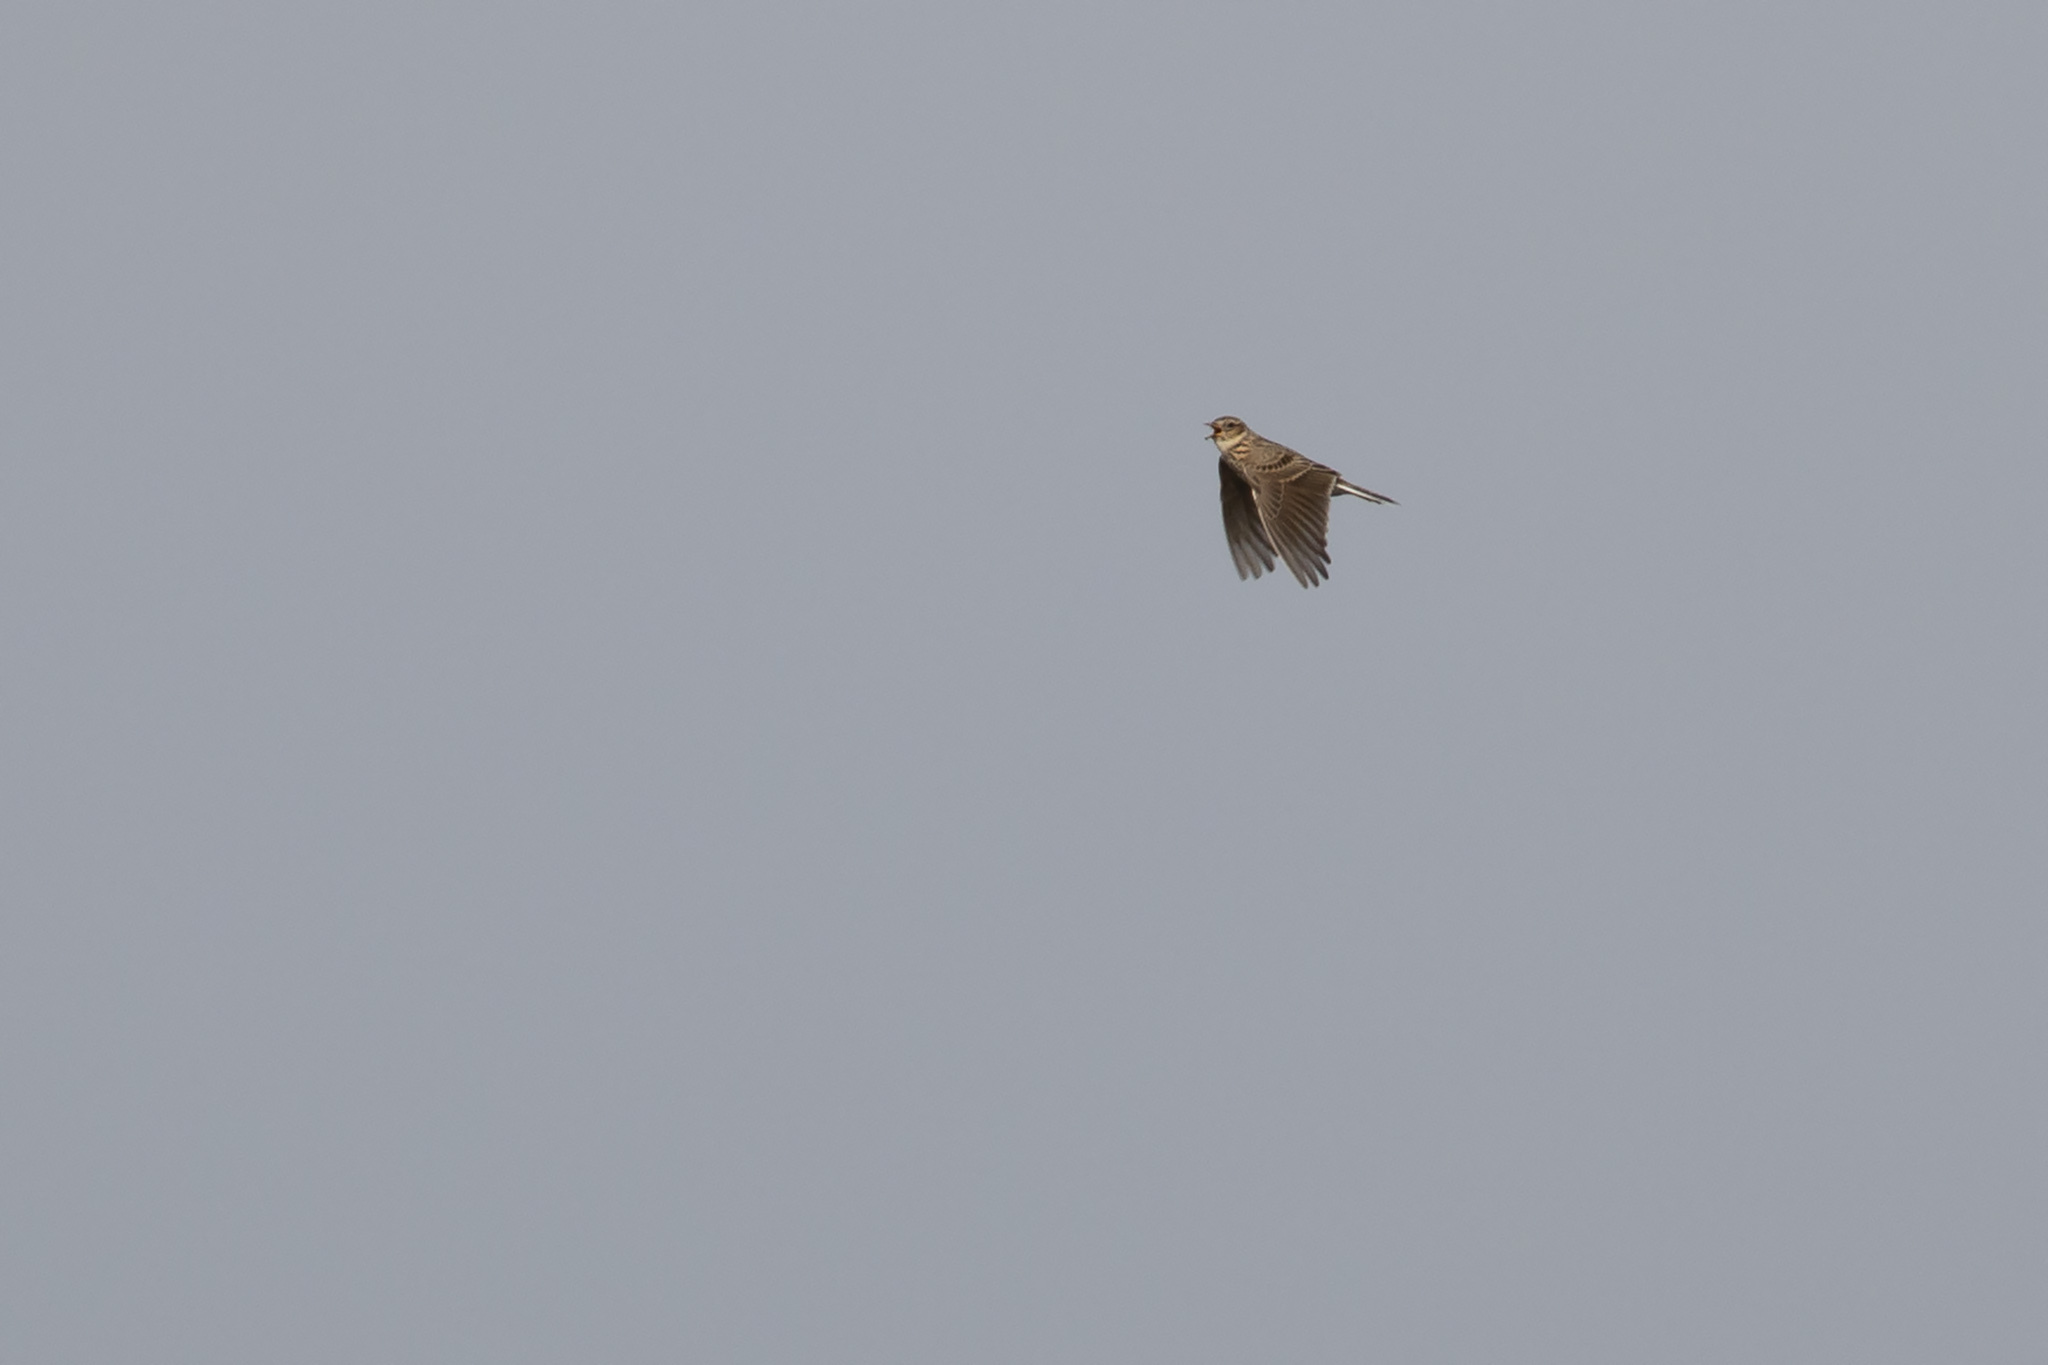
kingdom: Animalia
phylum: Chordata
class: Aves
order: Passeriformes
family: Alaudidae
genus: Alauda
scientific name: Alauda arvensis
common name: Eurasian skylark
